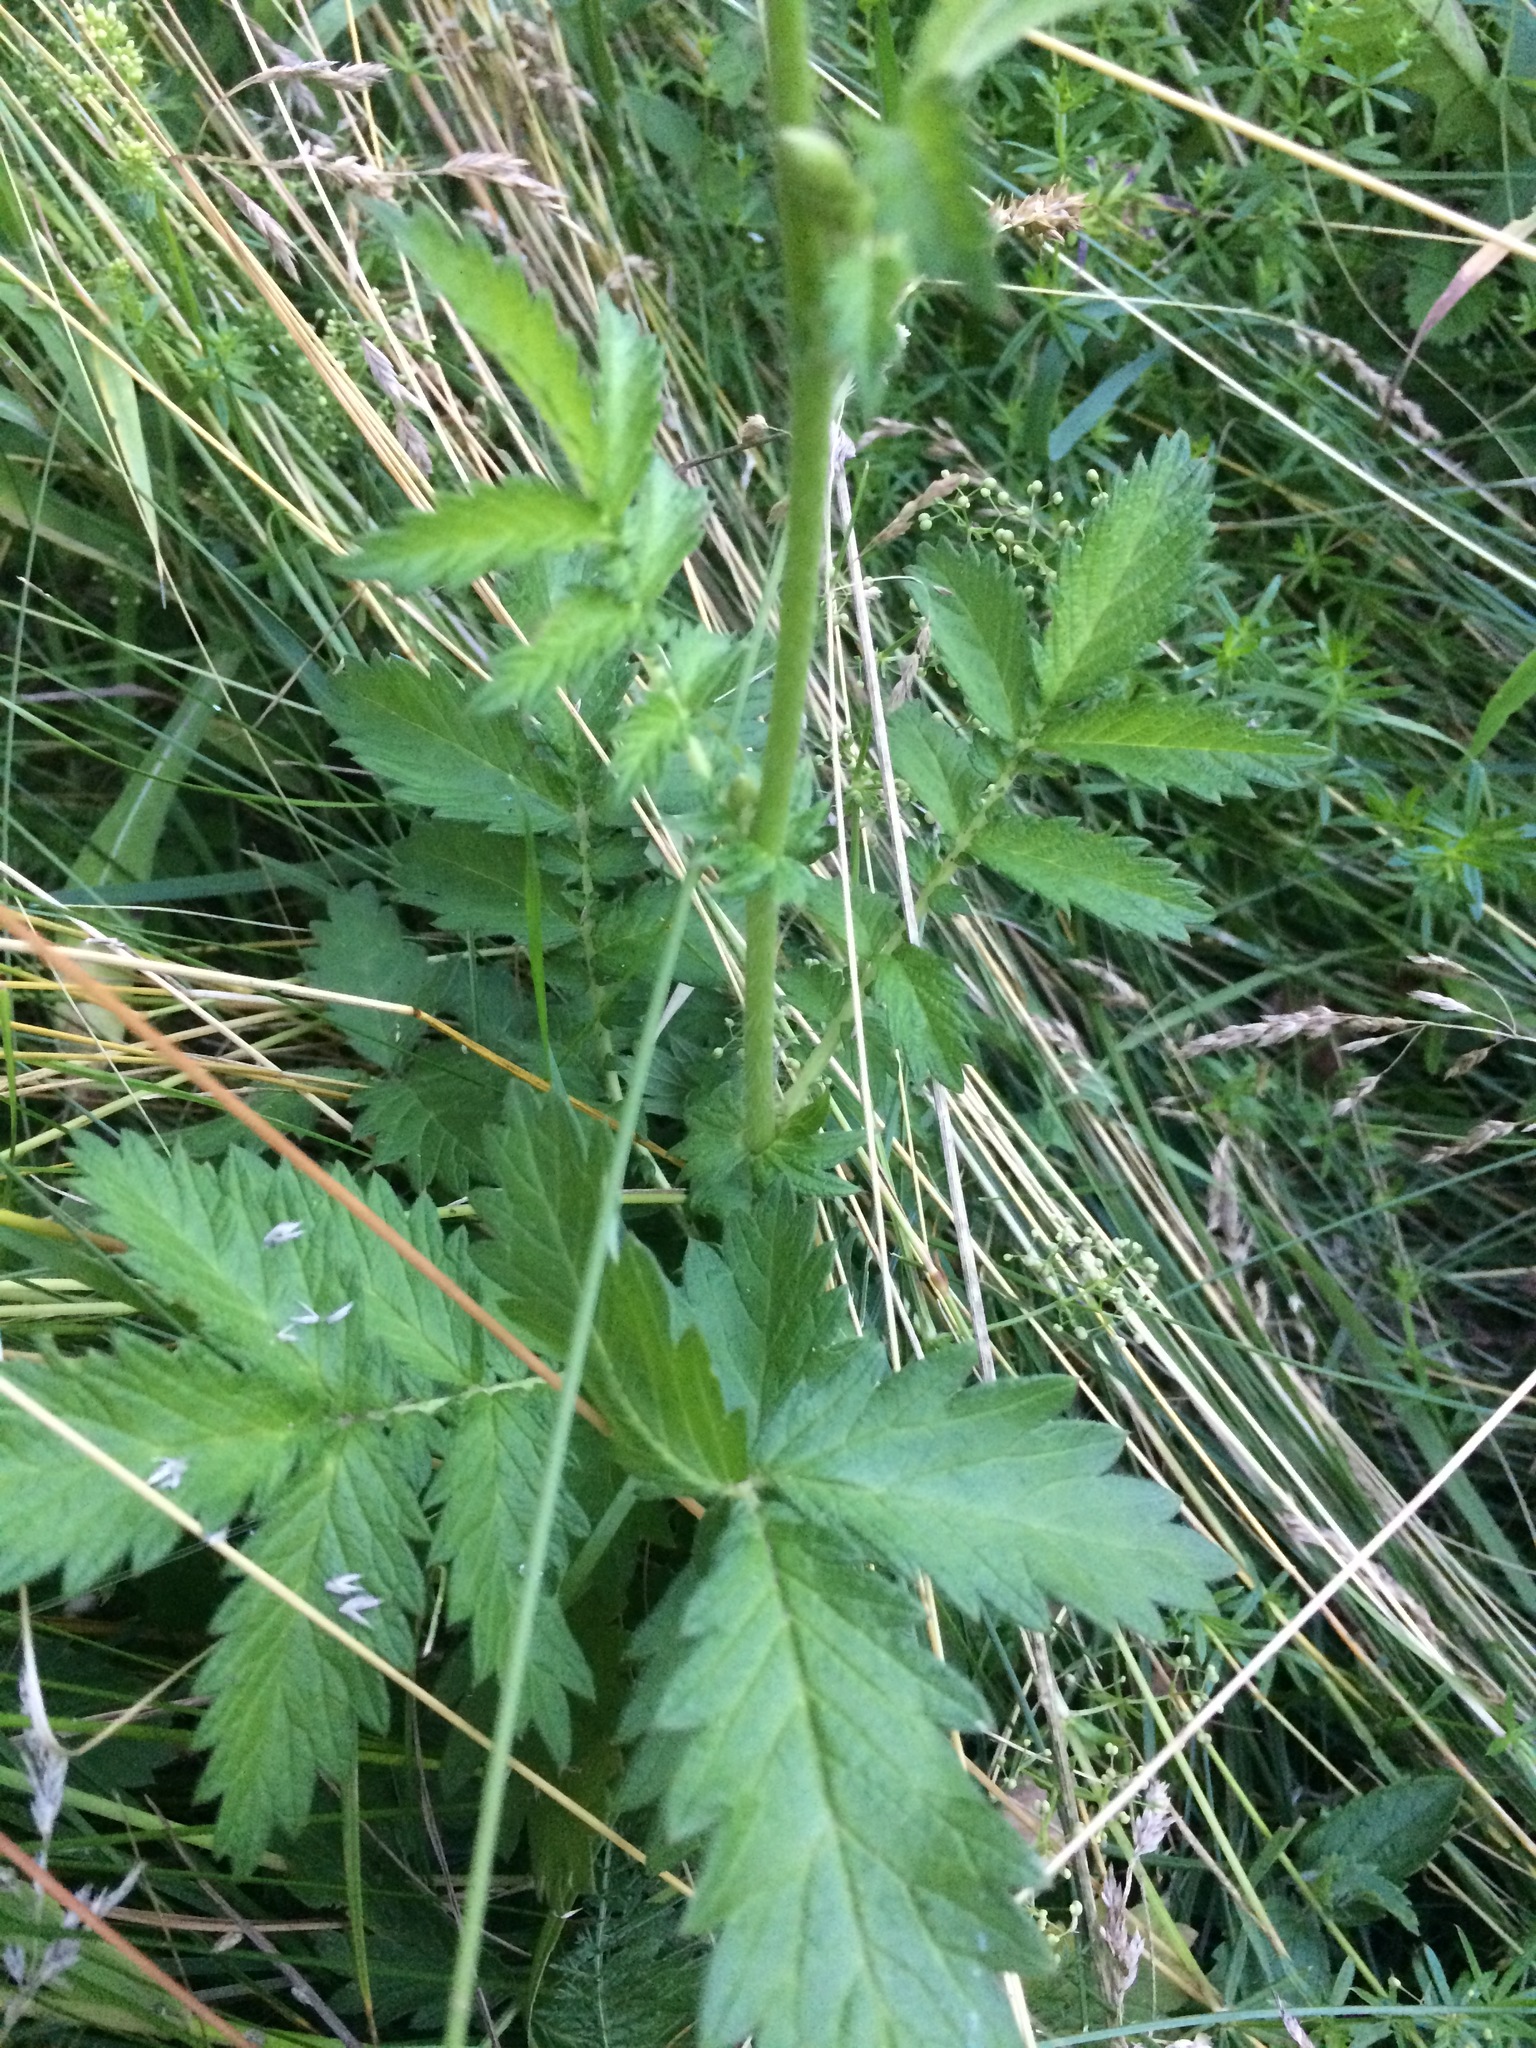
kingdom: Plantae
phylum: Tracheophyta
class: Magnoliopsida
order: Rosales
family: Rosaceae
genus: Agrimonia
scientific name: Agrimonia eupatoria
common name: Agrimony
